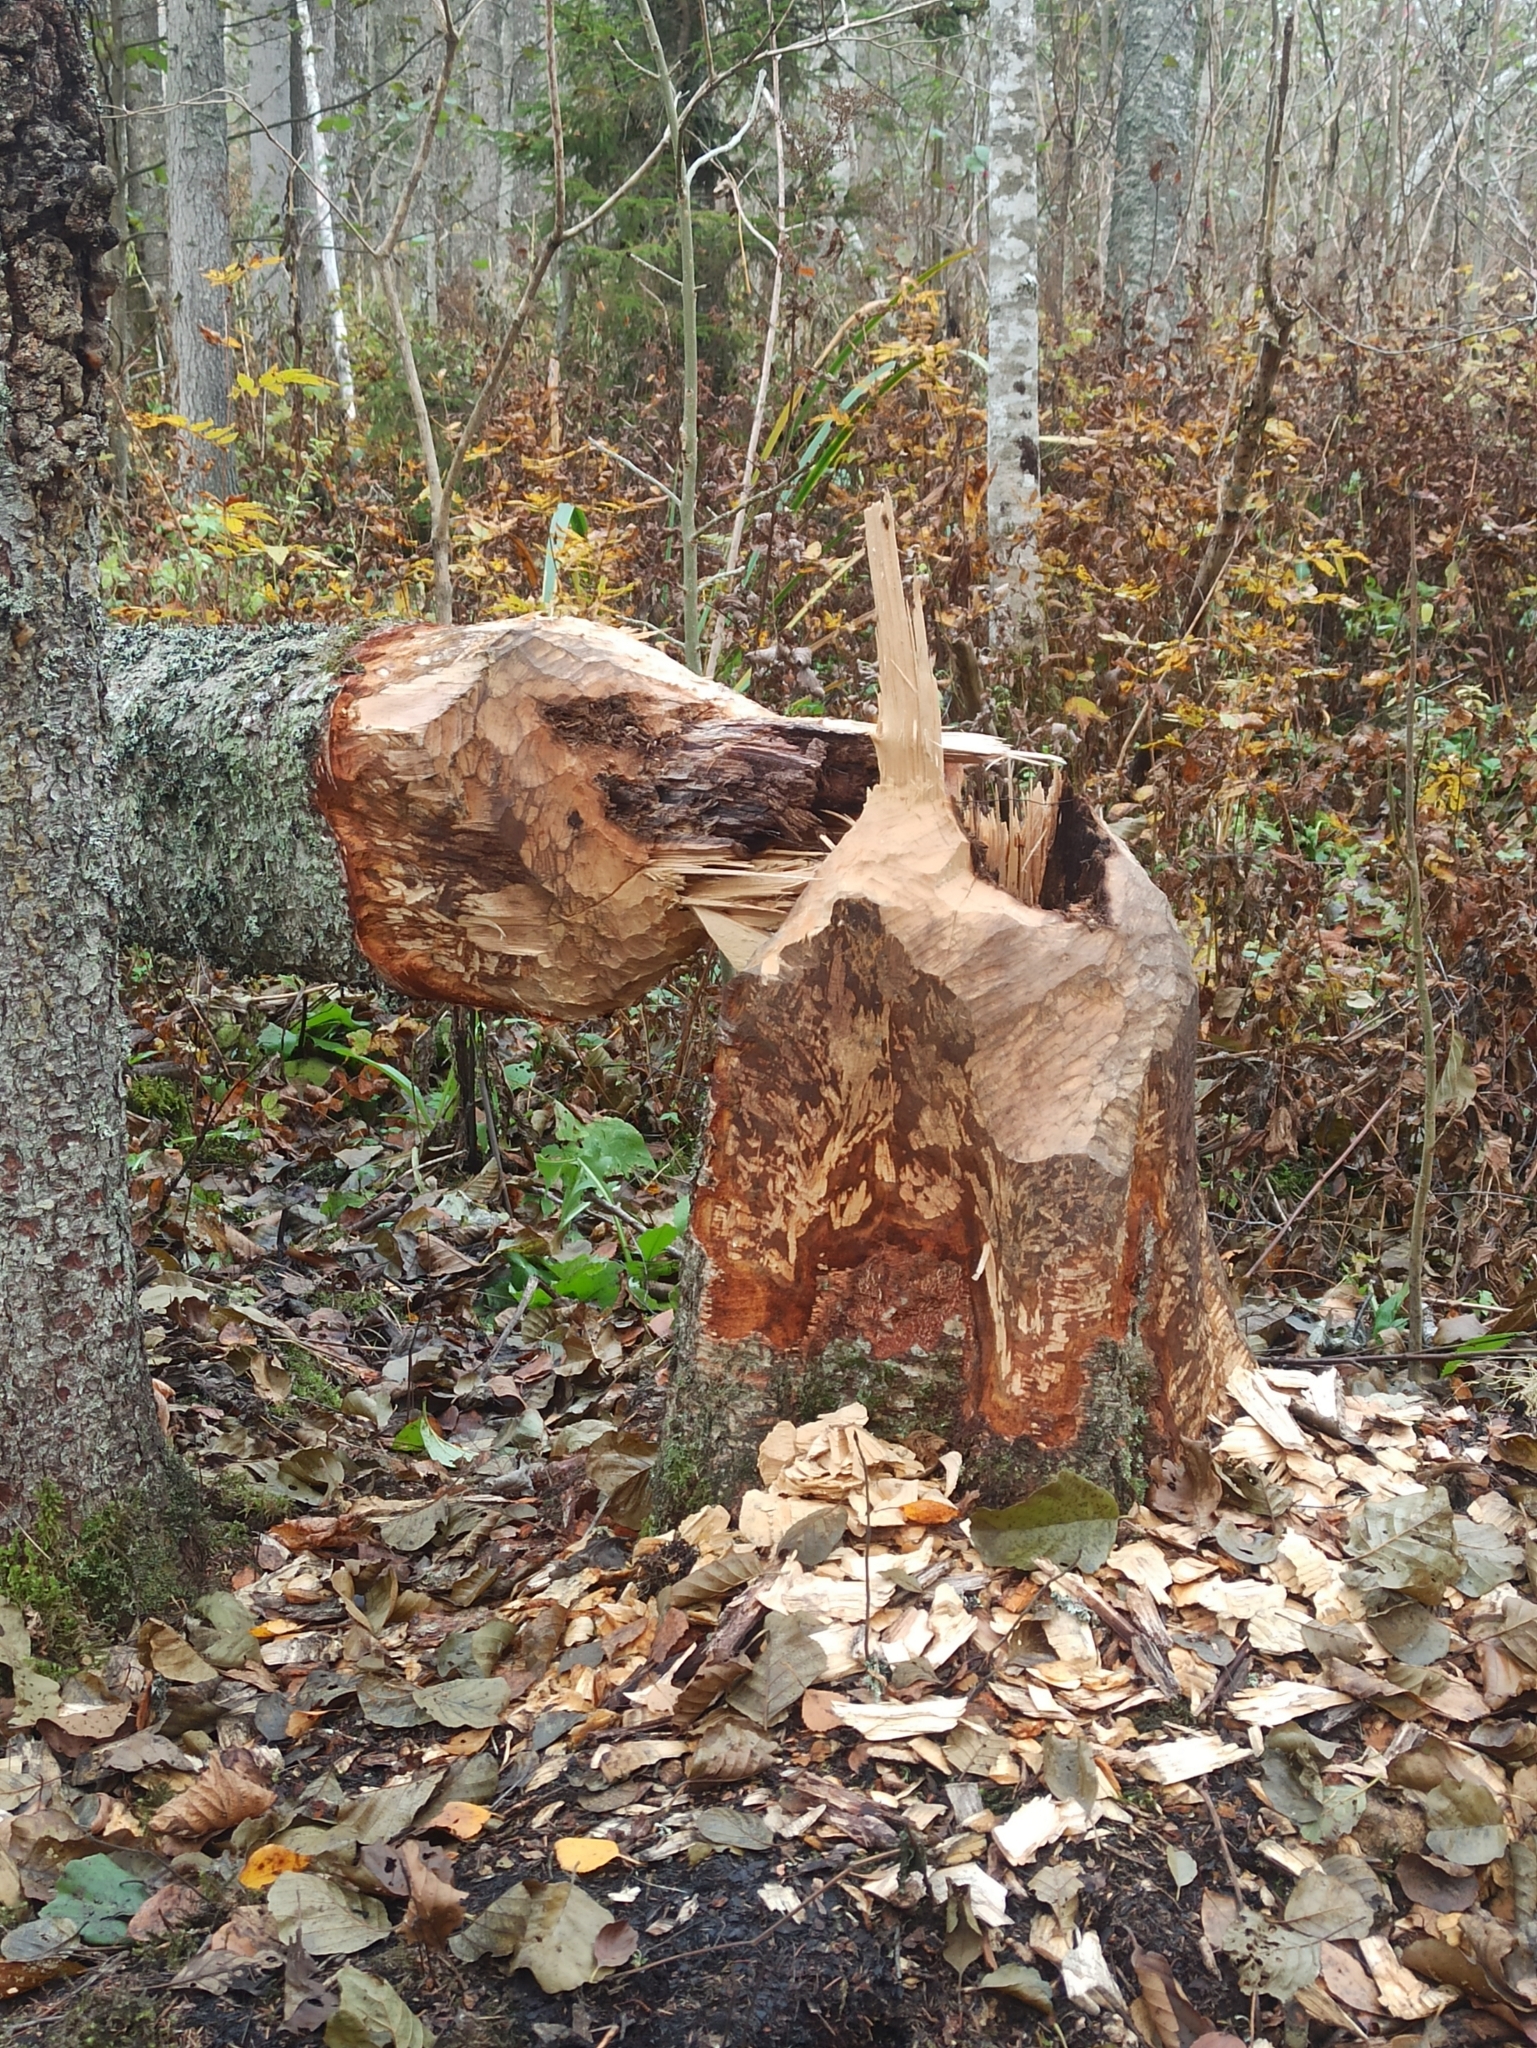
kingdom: Animalia
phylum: Chordata
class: Mammalia
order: Rodentia
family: Castoridae
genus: Castor
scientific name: Castor fiber
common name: Eurasian beaver
